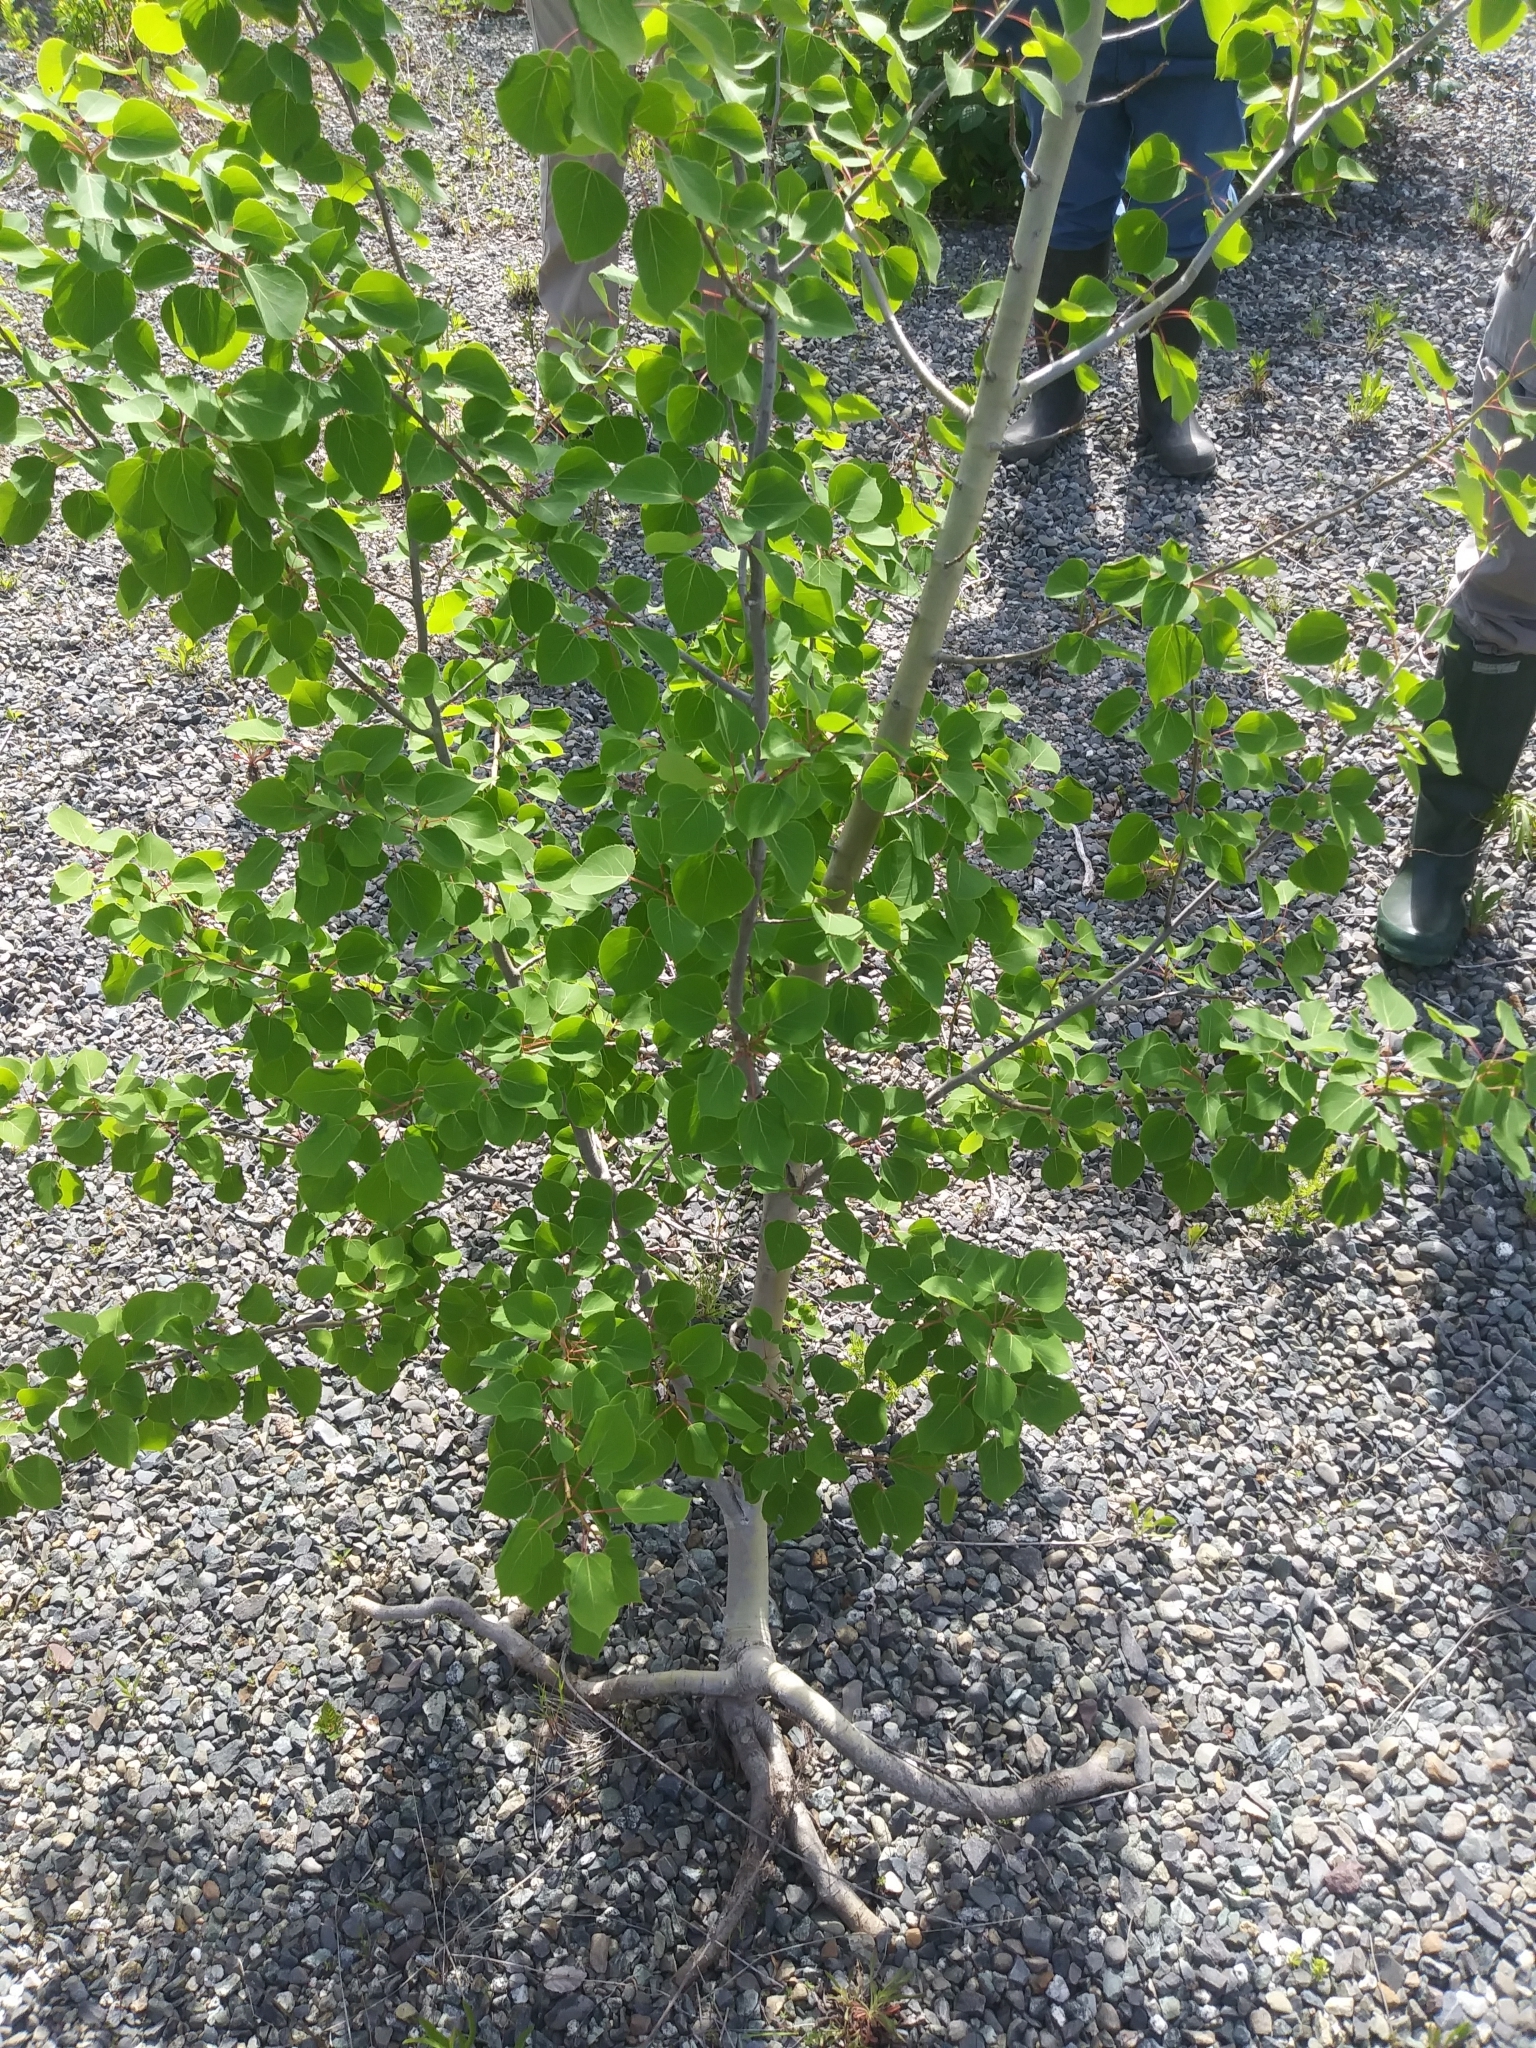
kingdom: Plantae
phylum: Tracheophyta
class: Magnoliopsida
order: Malpighiales
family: Salicaceae
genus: Populus
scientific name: Populus tremuloides
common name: Quaking aspen
